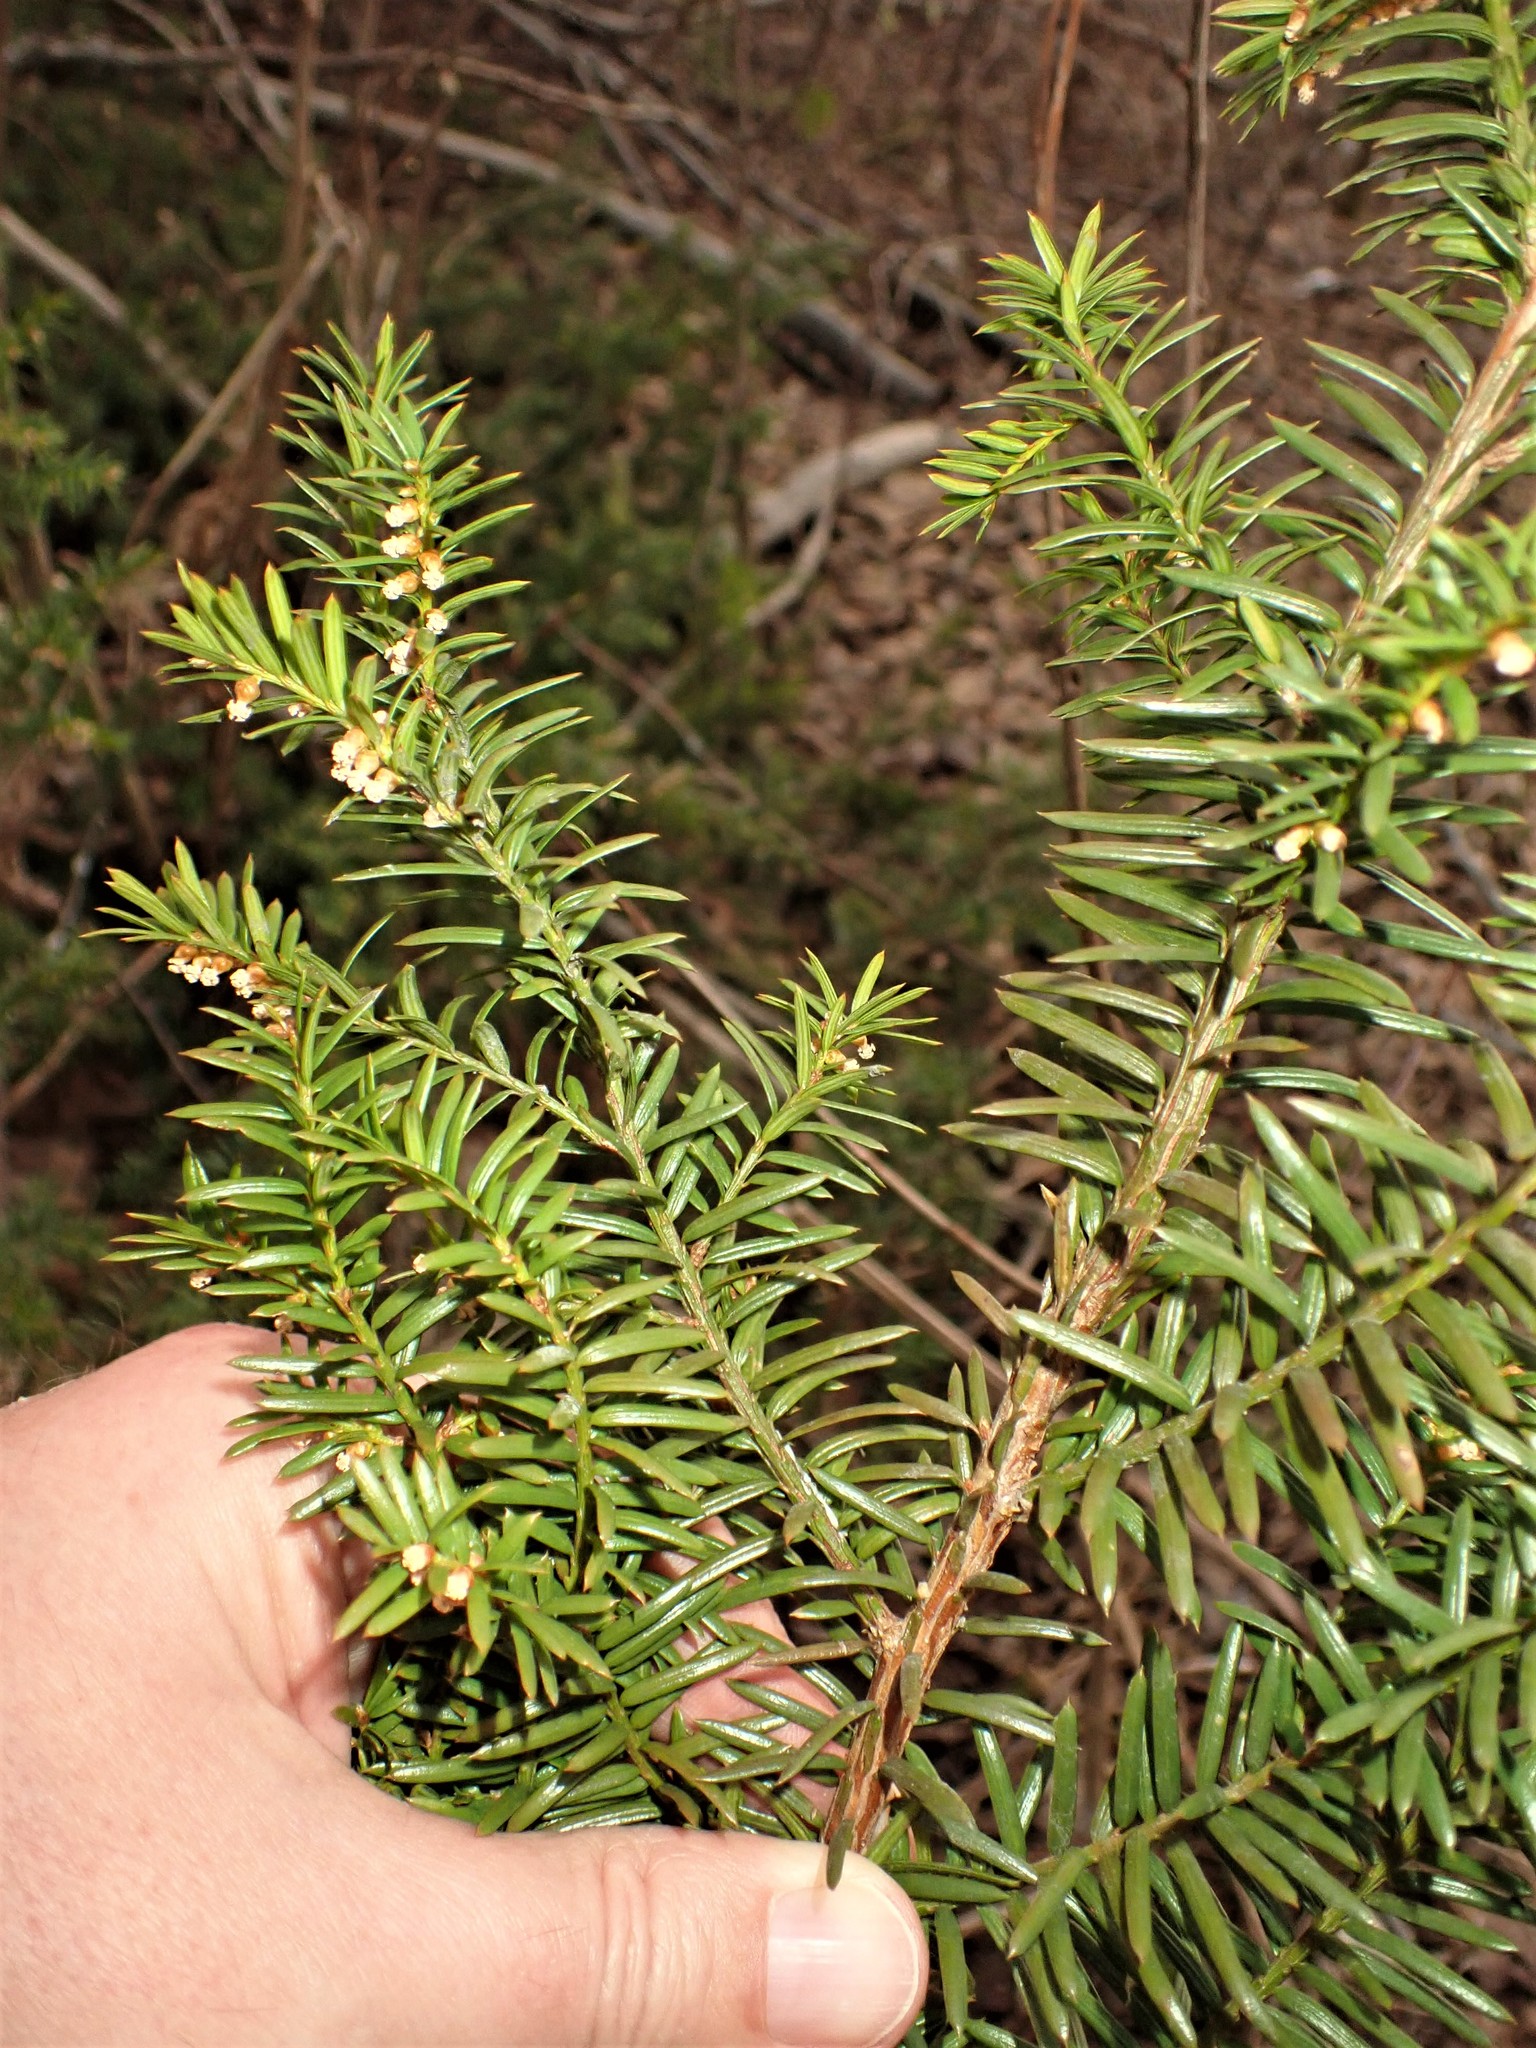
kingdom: Plantae
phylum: Tracheophyta
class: Pinopsida
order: Pinales
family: Taxaceae
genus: Taxus
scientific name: Taxus canadensis
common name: American yew
